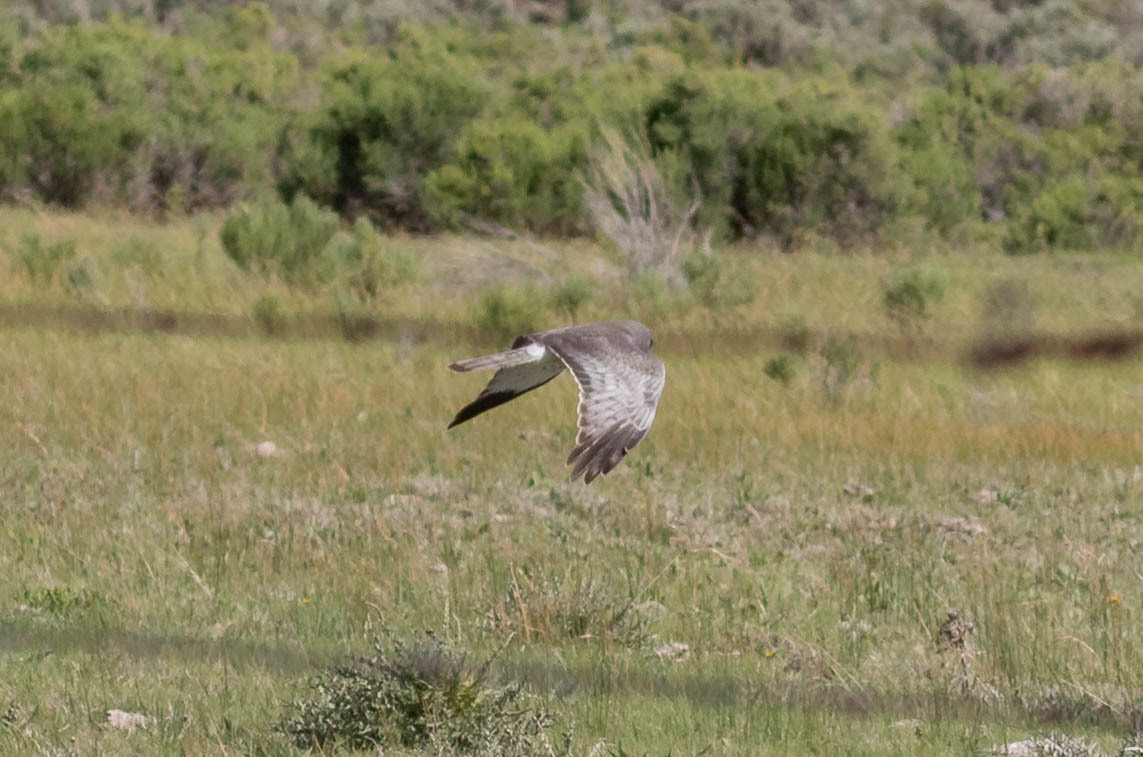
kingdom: Animalia
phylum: Chordata
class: Aves
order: Accipitriformes
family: Accipitridae
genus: Circus
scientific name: Circus cyaneus
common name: Hen harrier
